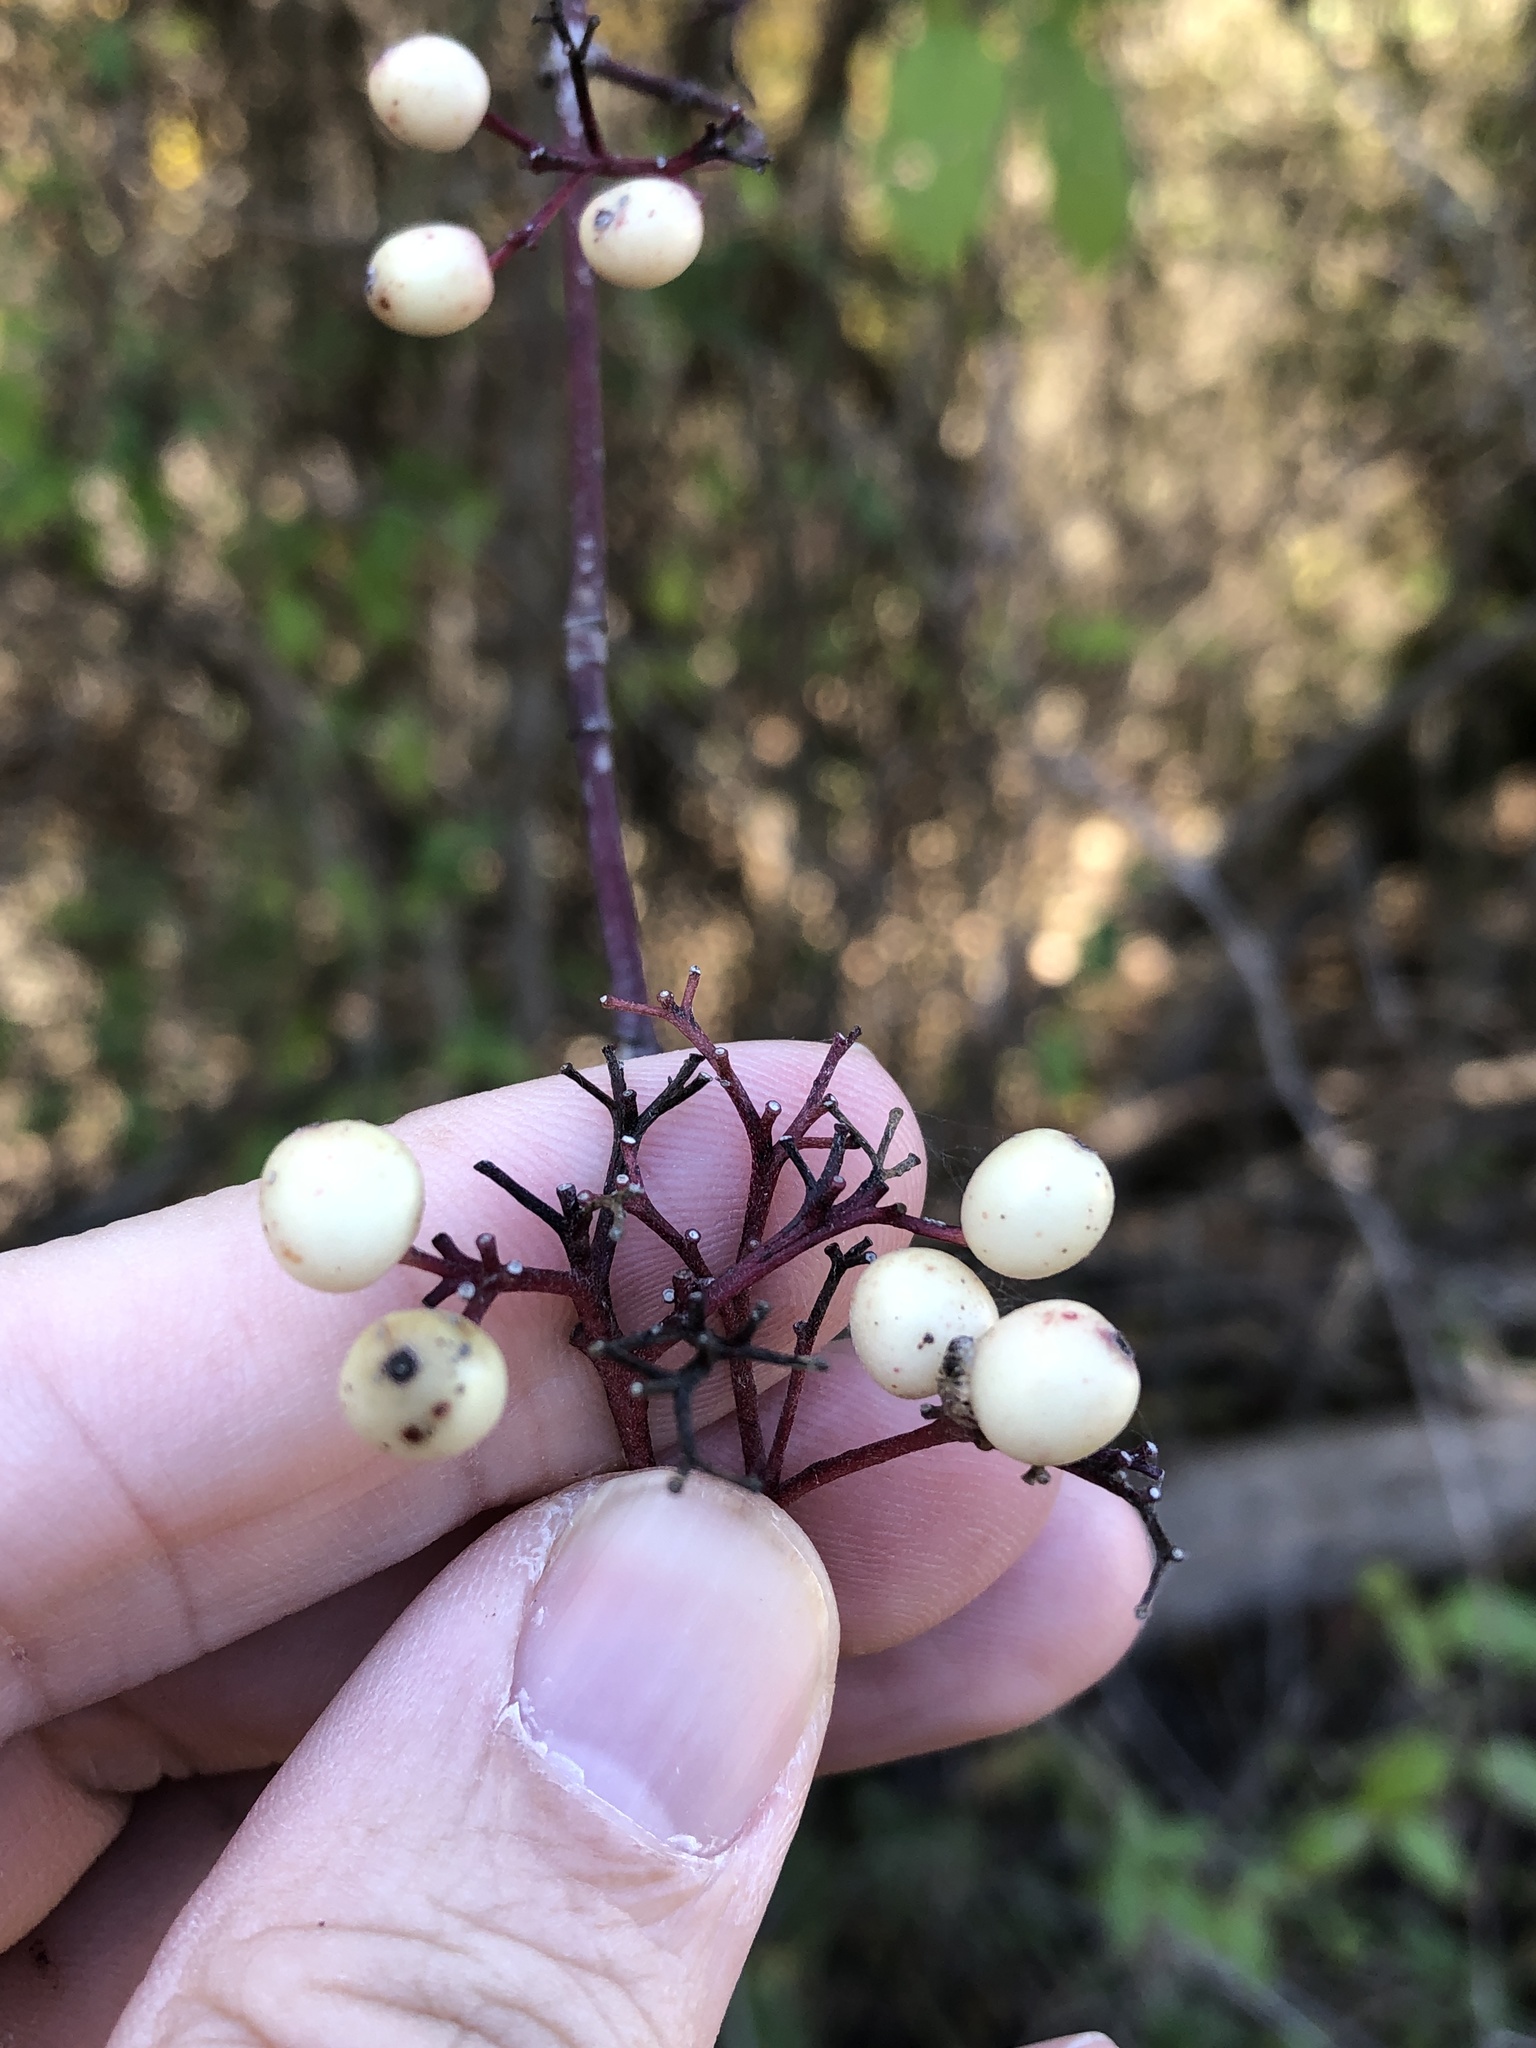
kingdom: Plantae
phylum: Tracheophyta
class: Magnoliopsida
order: Cornales
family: Cornaceae
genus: Cornus
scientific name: Cornus drummondii
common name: Rough-leaf dogwood
